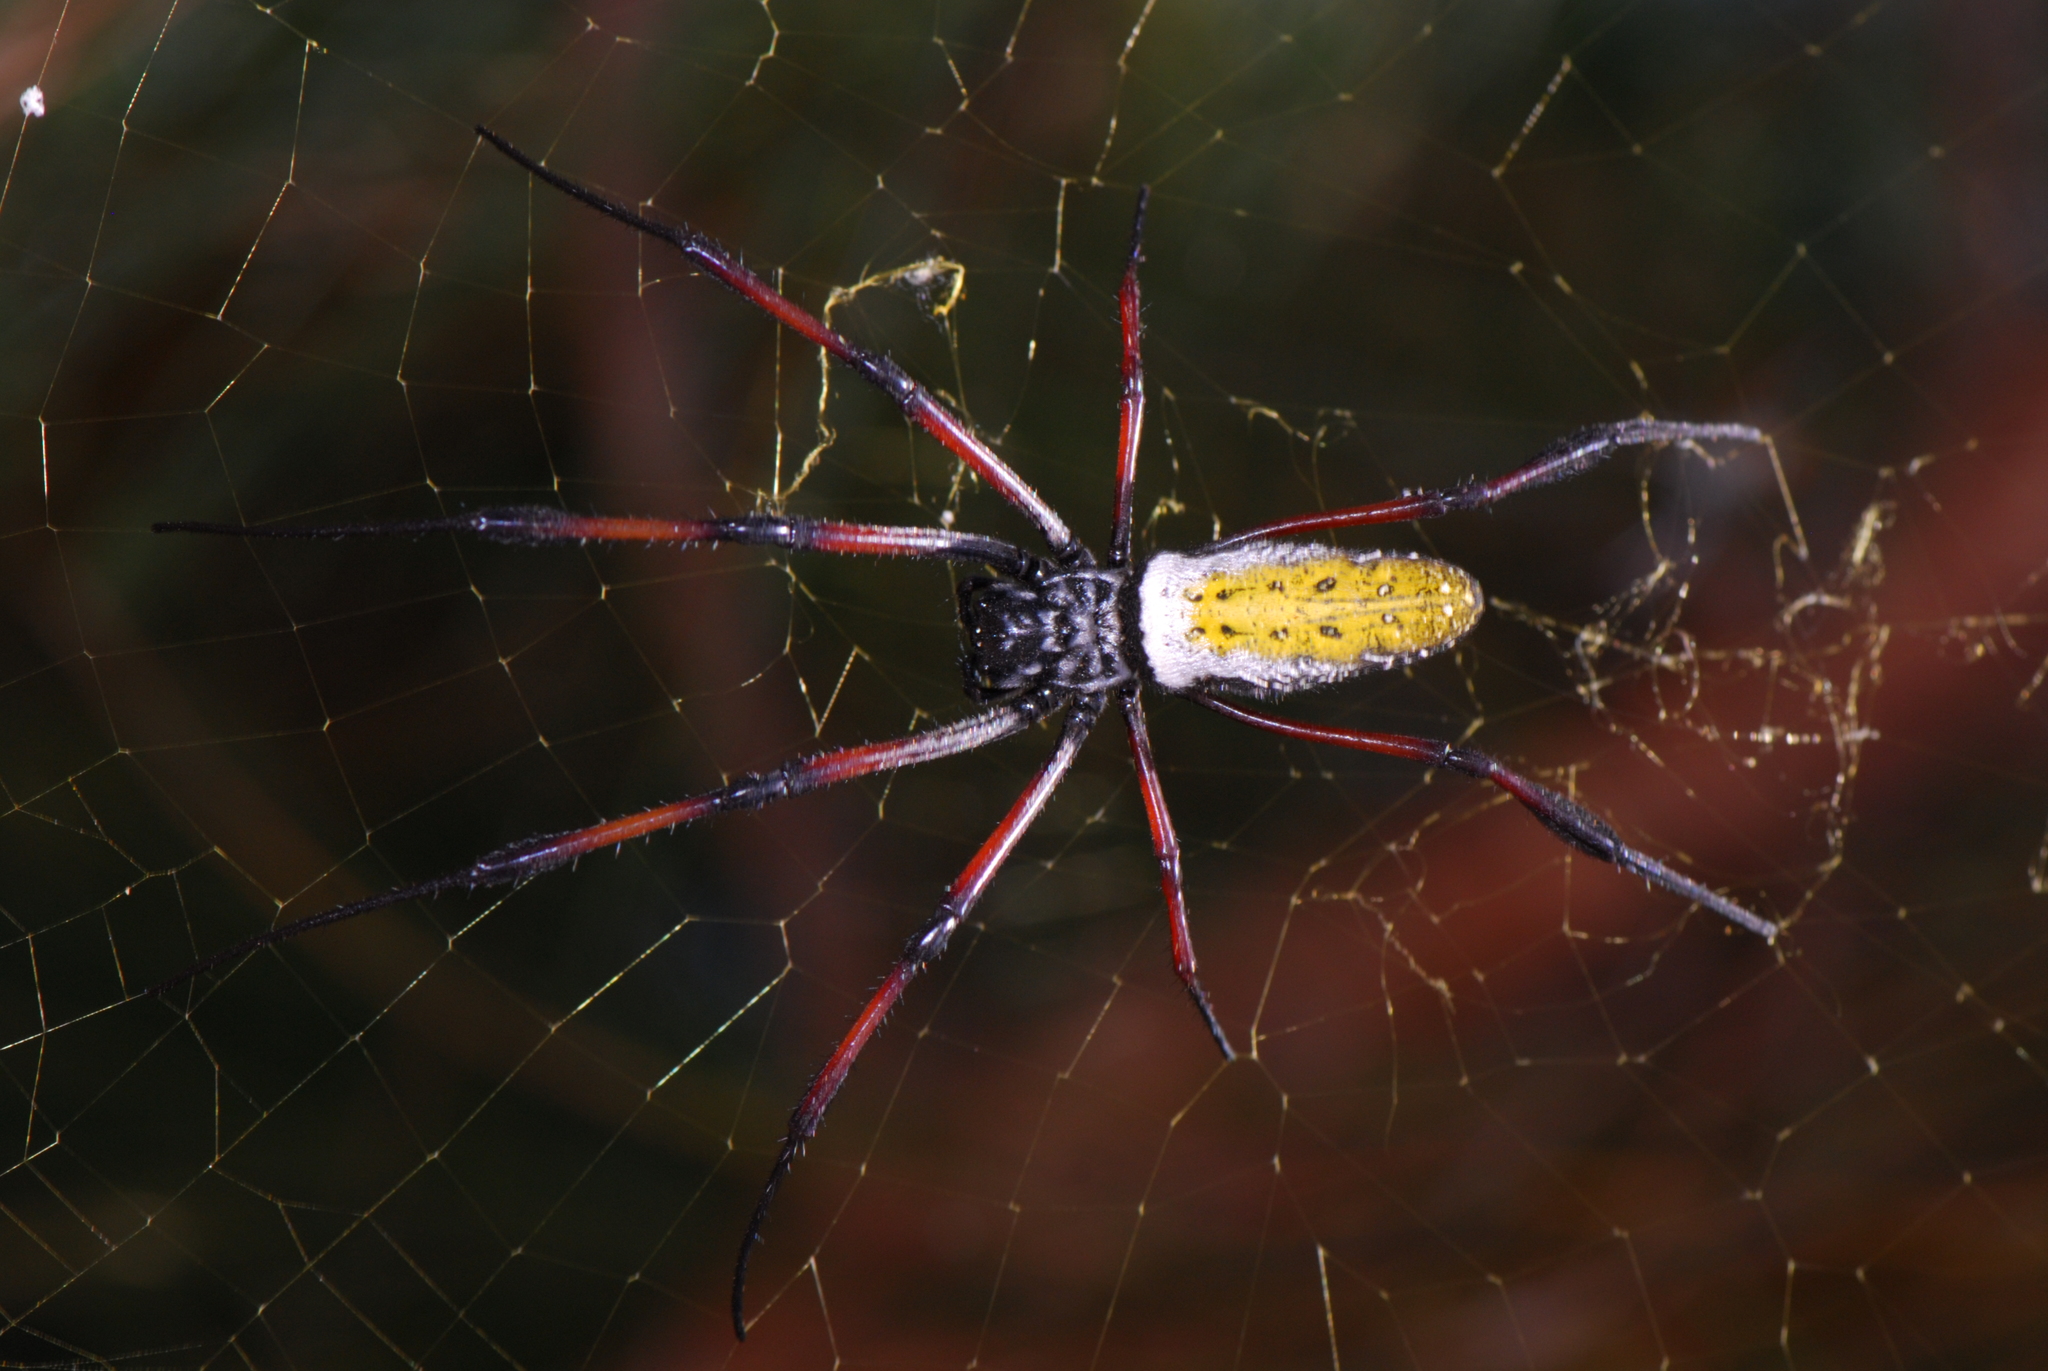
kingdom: Animalia
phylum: Arthropoda
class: Arachnida
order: Araneae
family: Araneidae
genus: Trichonephila
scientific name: Trichonephila inaurata
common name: Red-legged golden orb weaver
